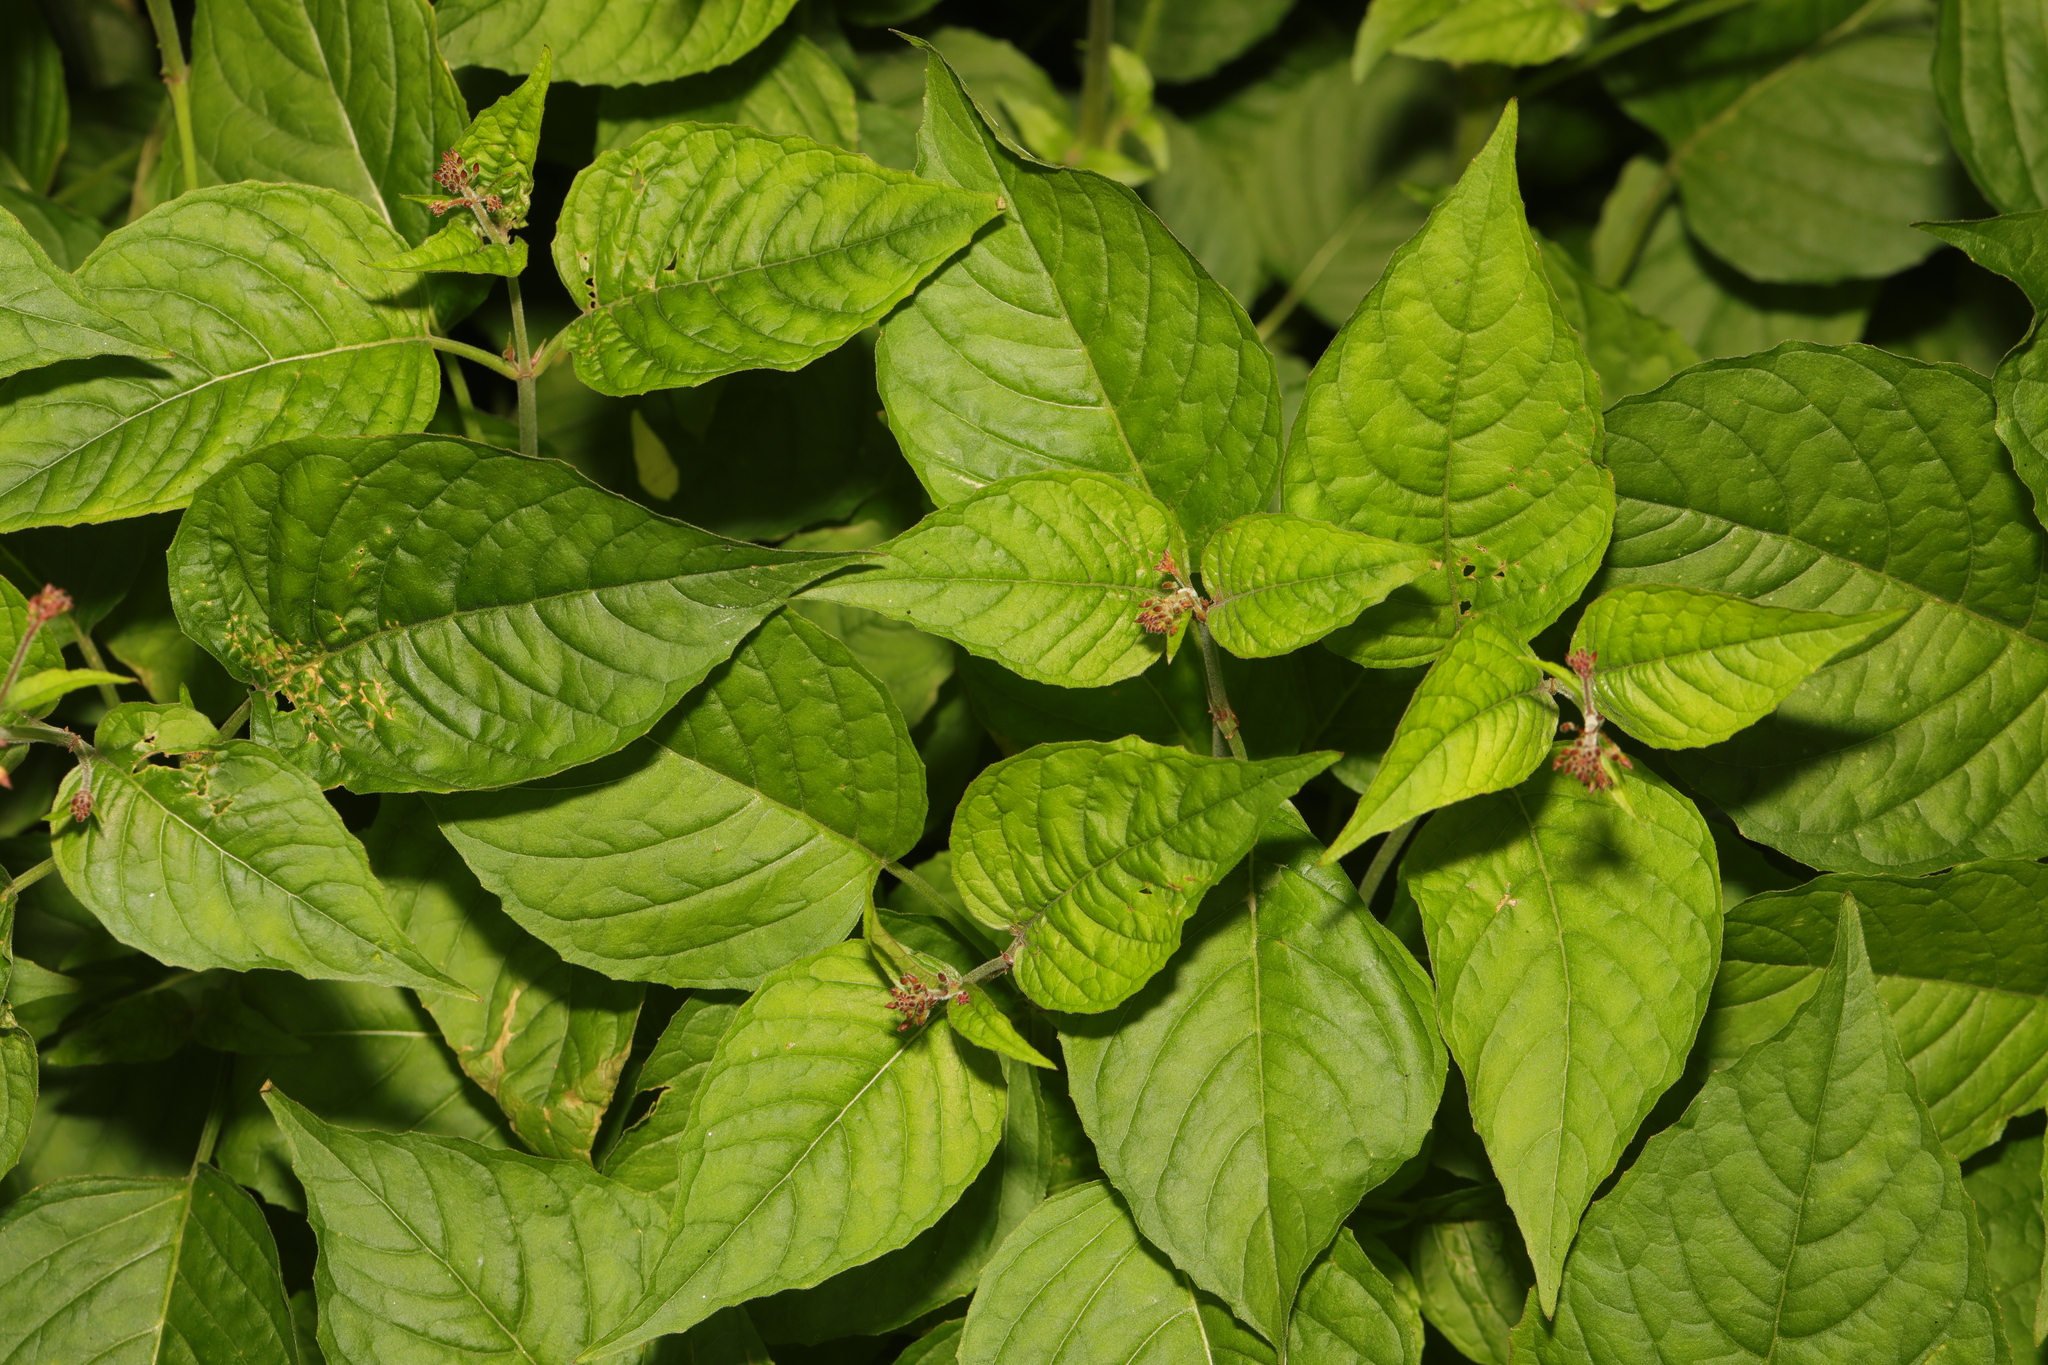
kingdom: Plantae
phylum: Tracheophyta
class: Magnoliopsida
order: Myrtales
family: Onagraceae
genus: Circaea
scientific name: Circaea lutetiana
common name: Enchanter's-nightshade
